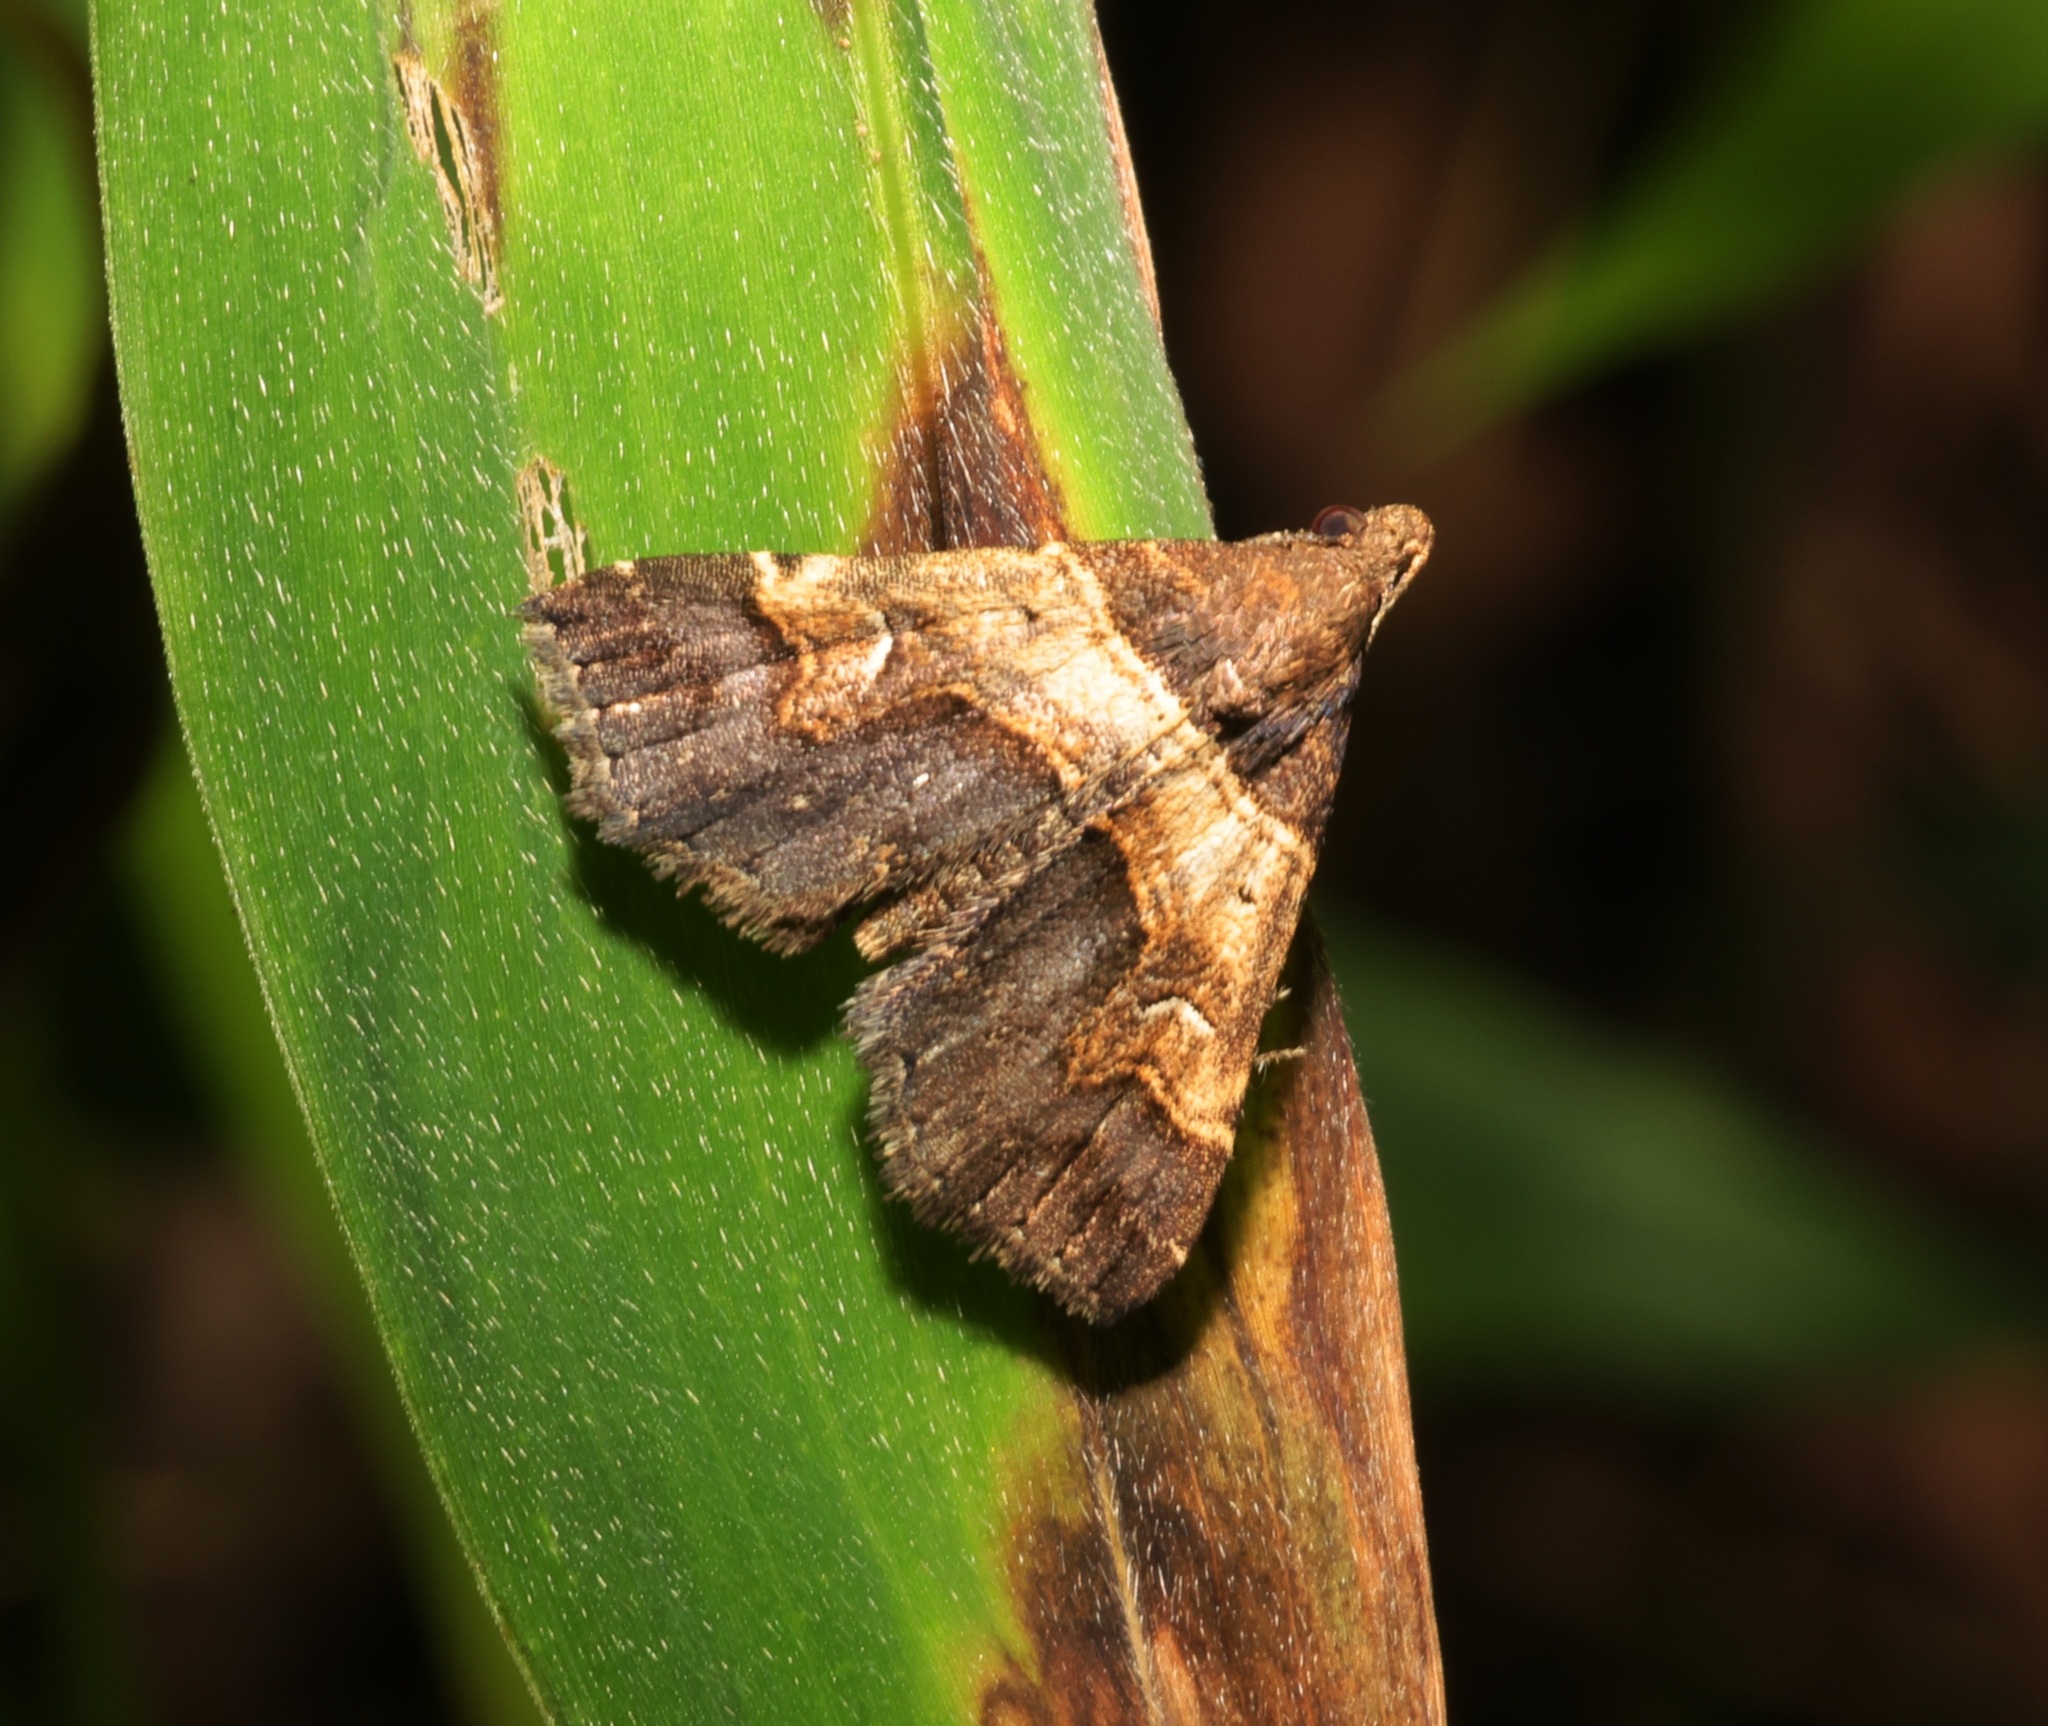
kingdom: Animalia
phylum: Arthropoda
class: Insecta
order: Lepidoptera
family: Erebidae
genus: Bertula
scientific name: Bertula abjudicalis
